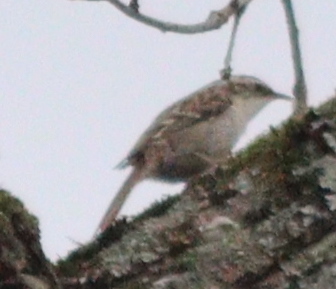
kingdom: Animalia
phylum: Chordata
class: Aves
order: Passeriformes
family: Certhiidae
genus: Certhia
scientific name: Certhia brachydactyla
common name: Short-toed treecreeper
